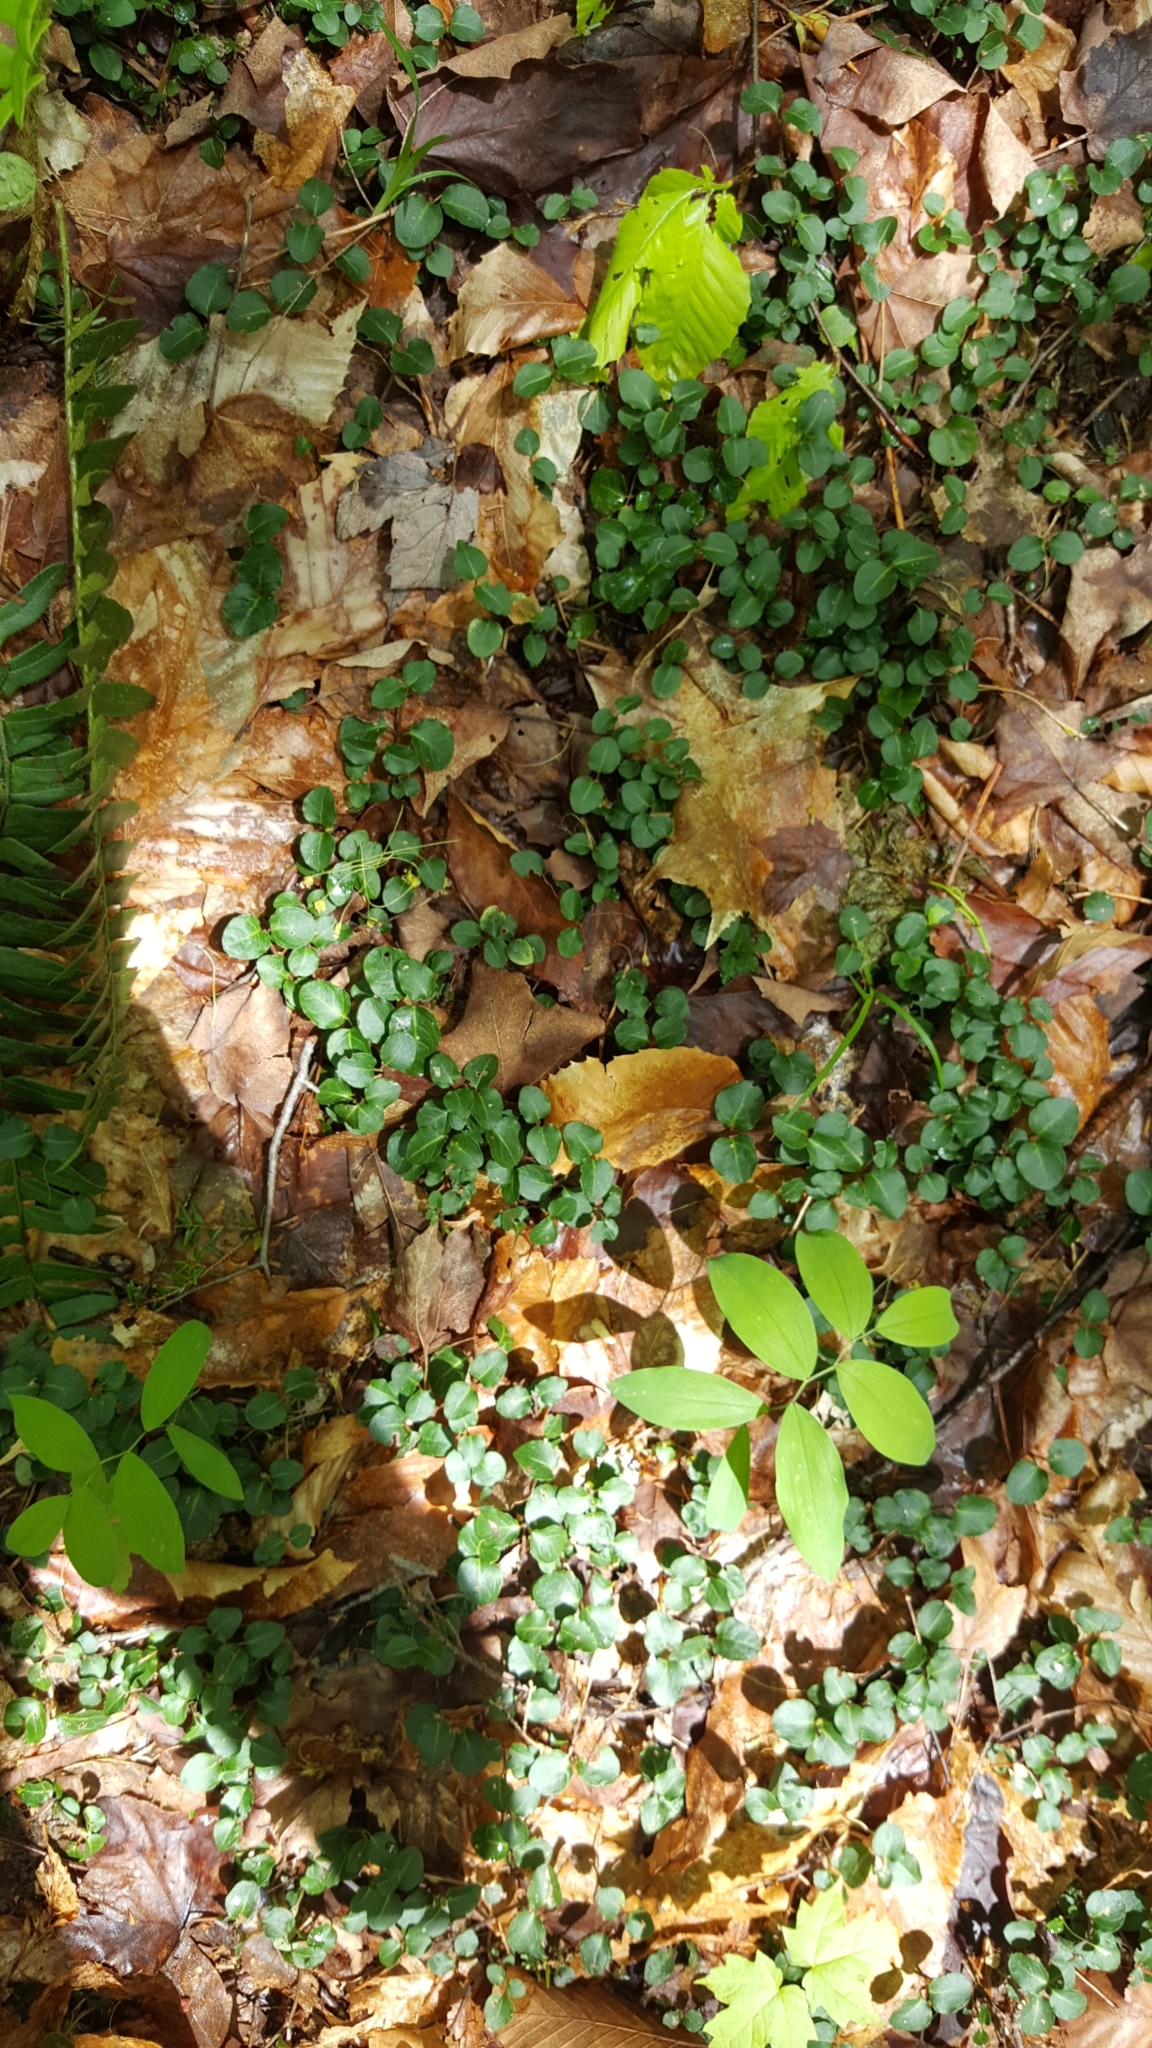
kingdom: Plantae
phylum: Tracheophyta
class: Magnoliopsida
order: Gentianales
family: Rubiaceae
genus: Mitchella
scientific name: Mitchella repens
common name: Partridge-berry
